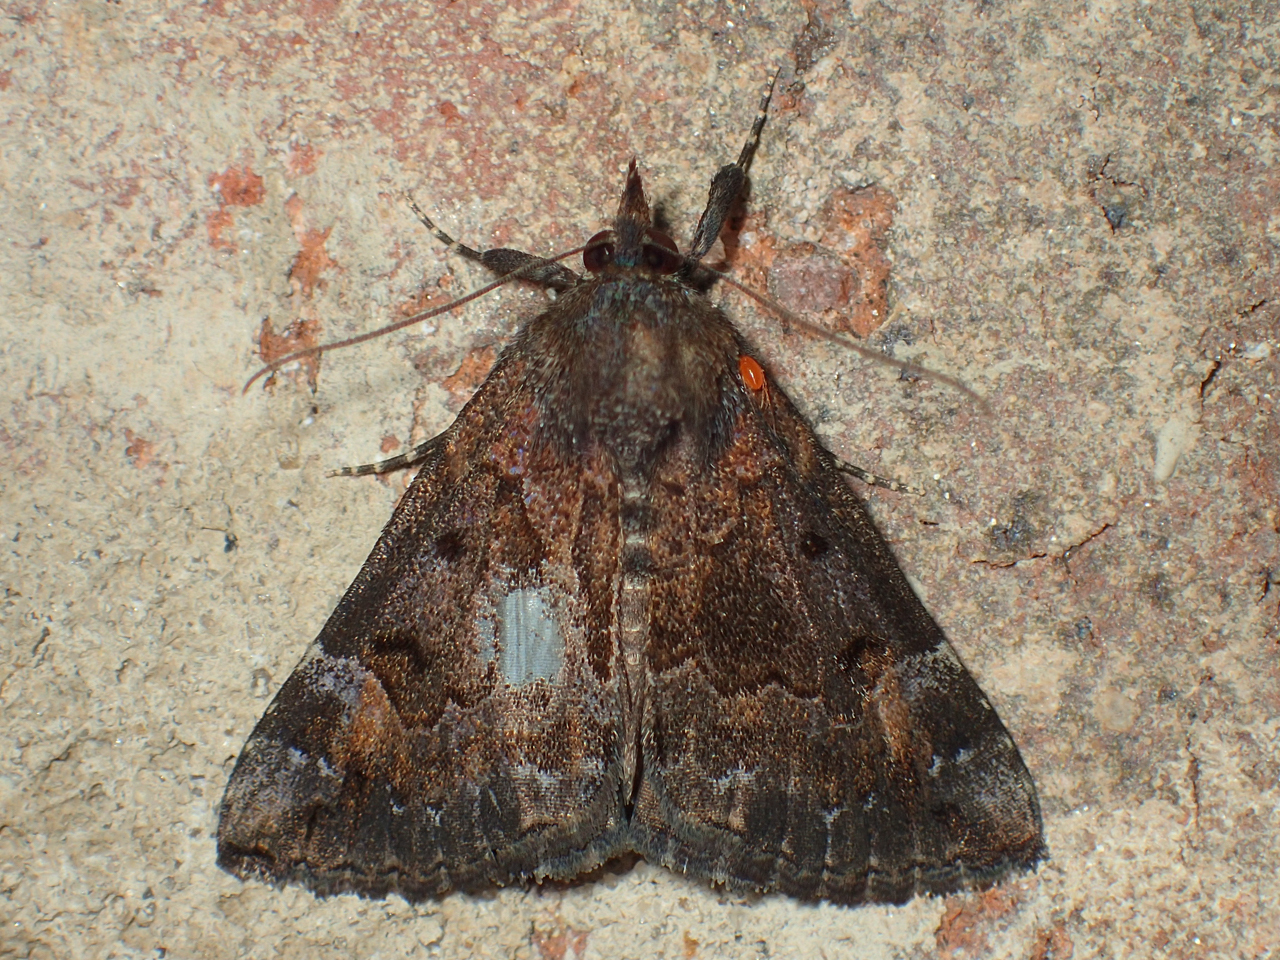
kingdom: Animalia
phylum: Arthropoda
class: Insecta
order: Lepidoptera
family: Erebidae
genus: Hypena
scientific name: Hypena palparia
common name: Mottled bomolocha moth
